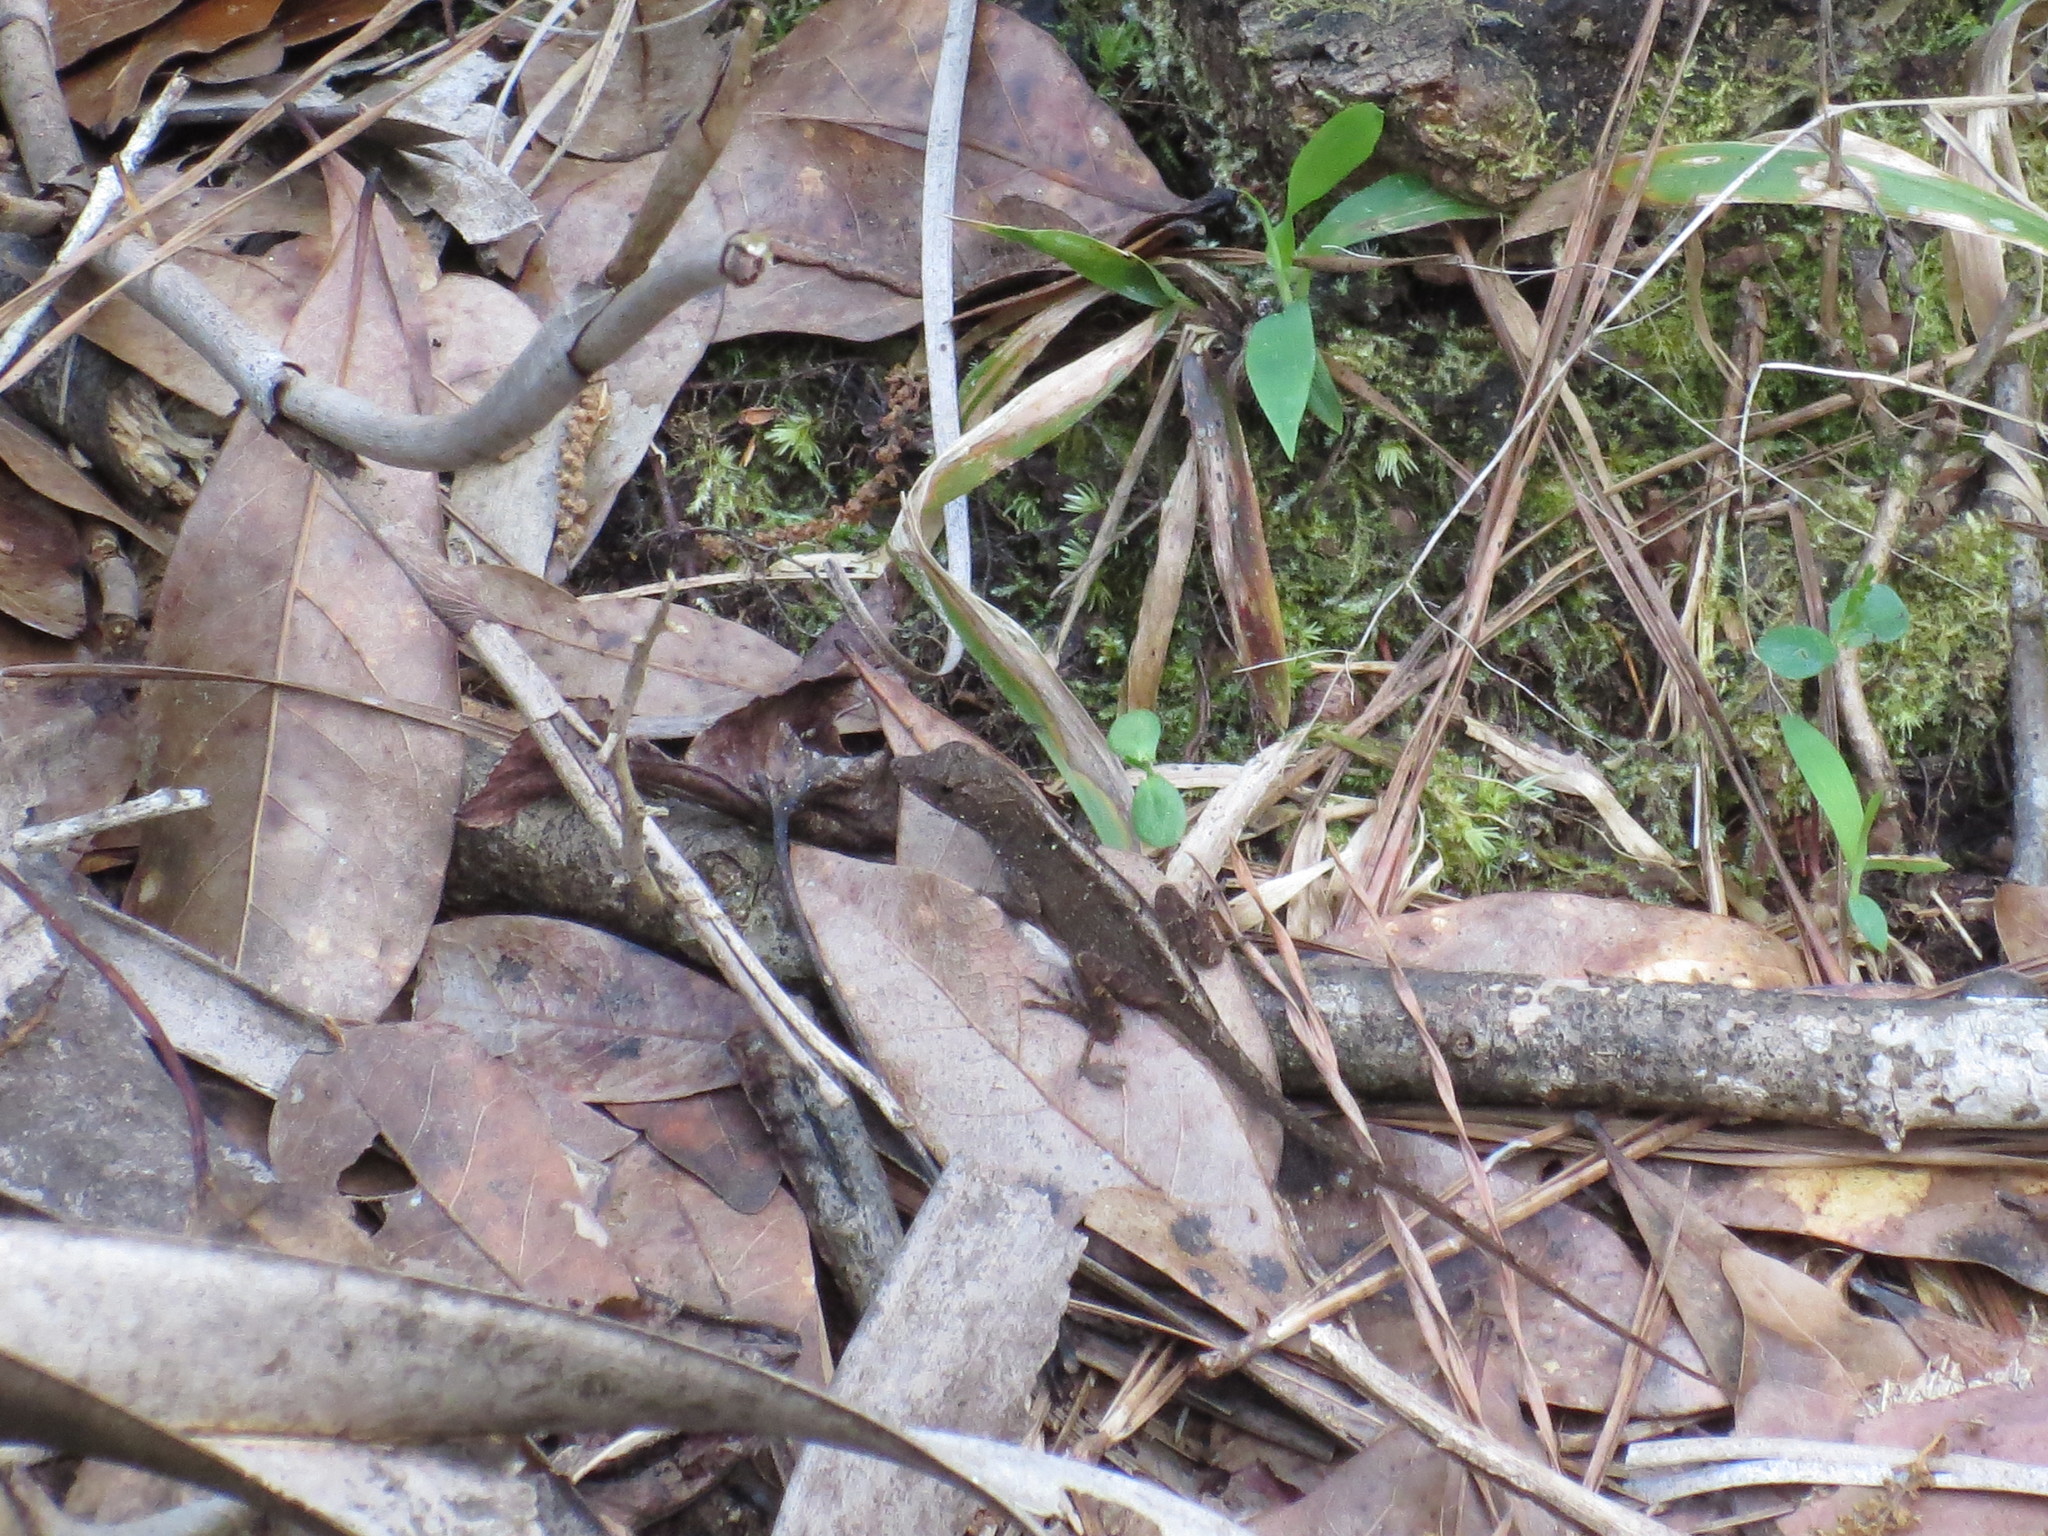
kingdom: Animalia
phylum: Chordata
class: Squamata
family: Dactyloidae
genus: Anolis
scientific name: Anolis sagrei
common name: Brown anole
